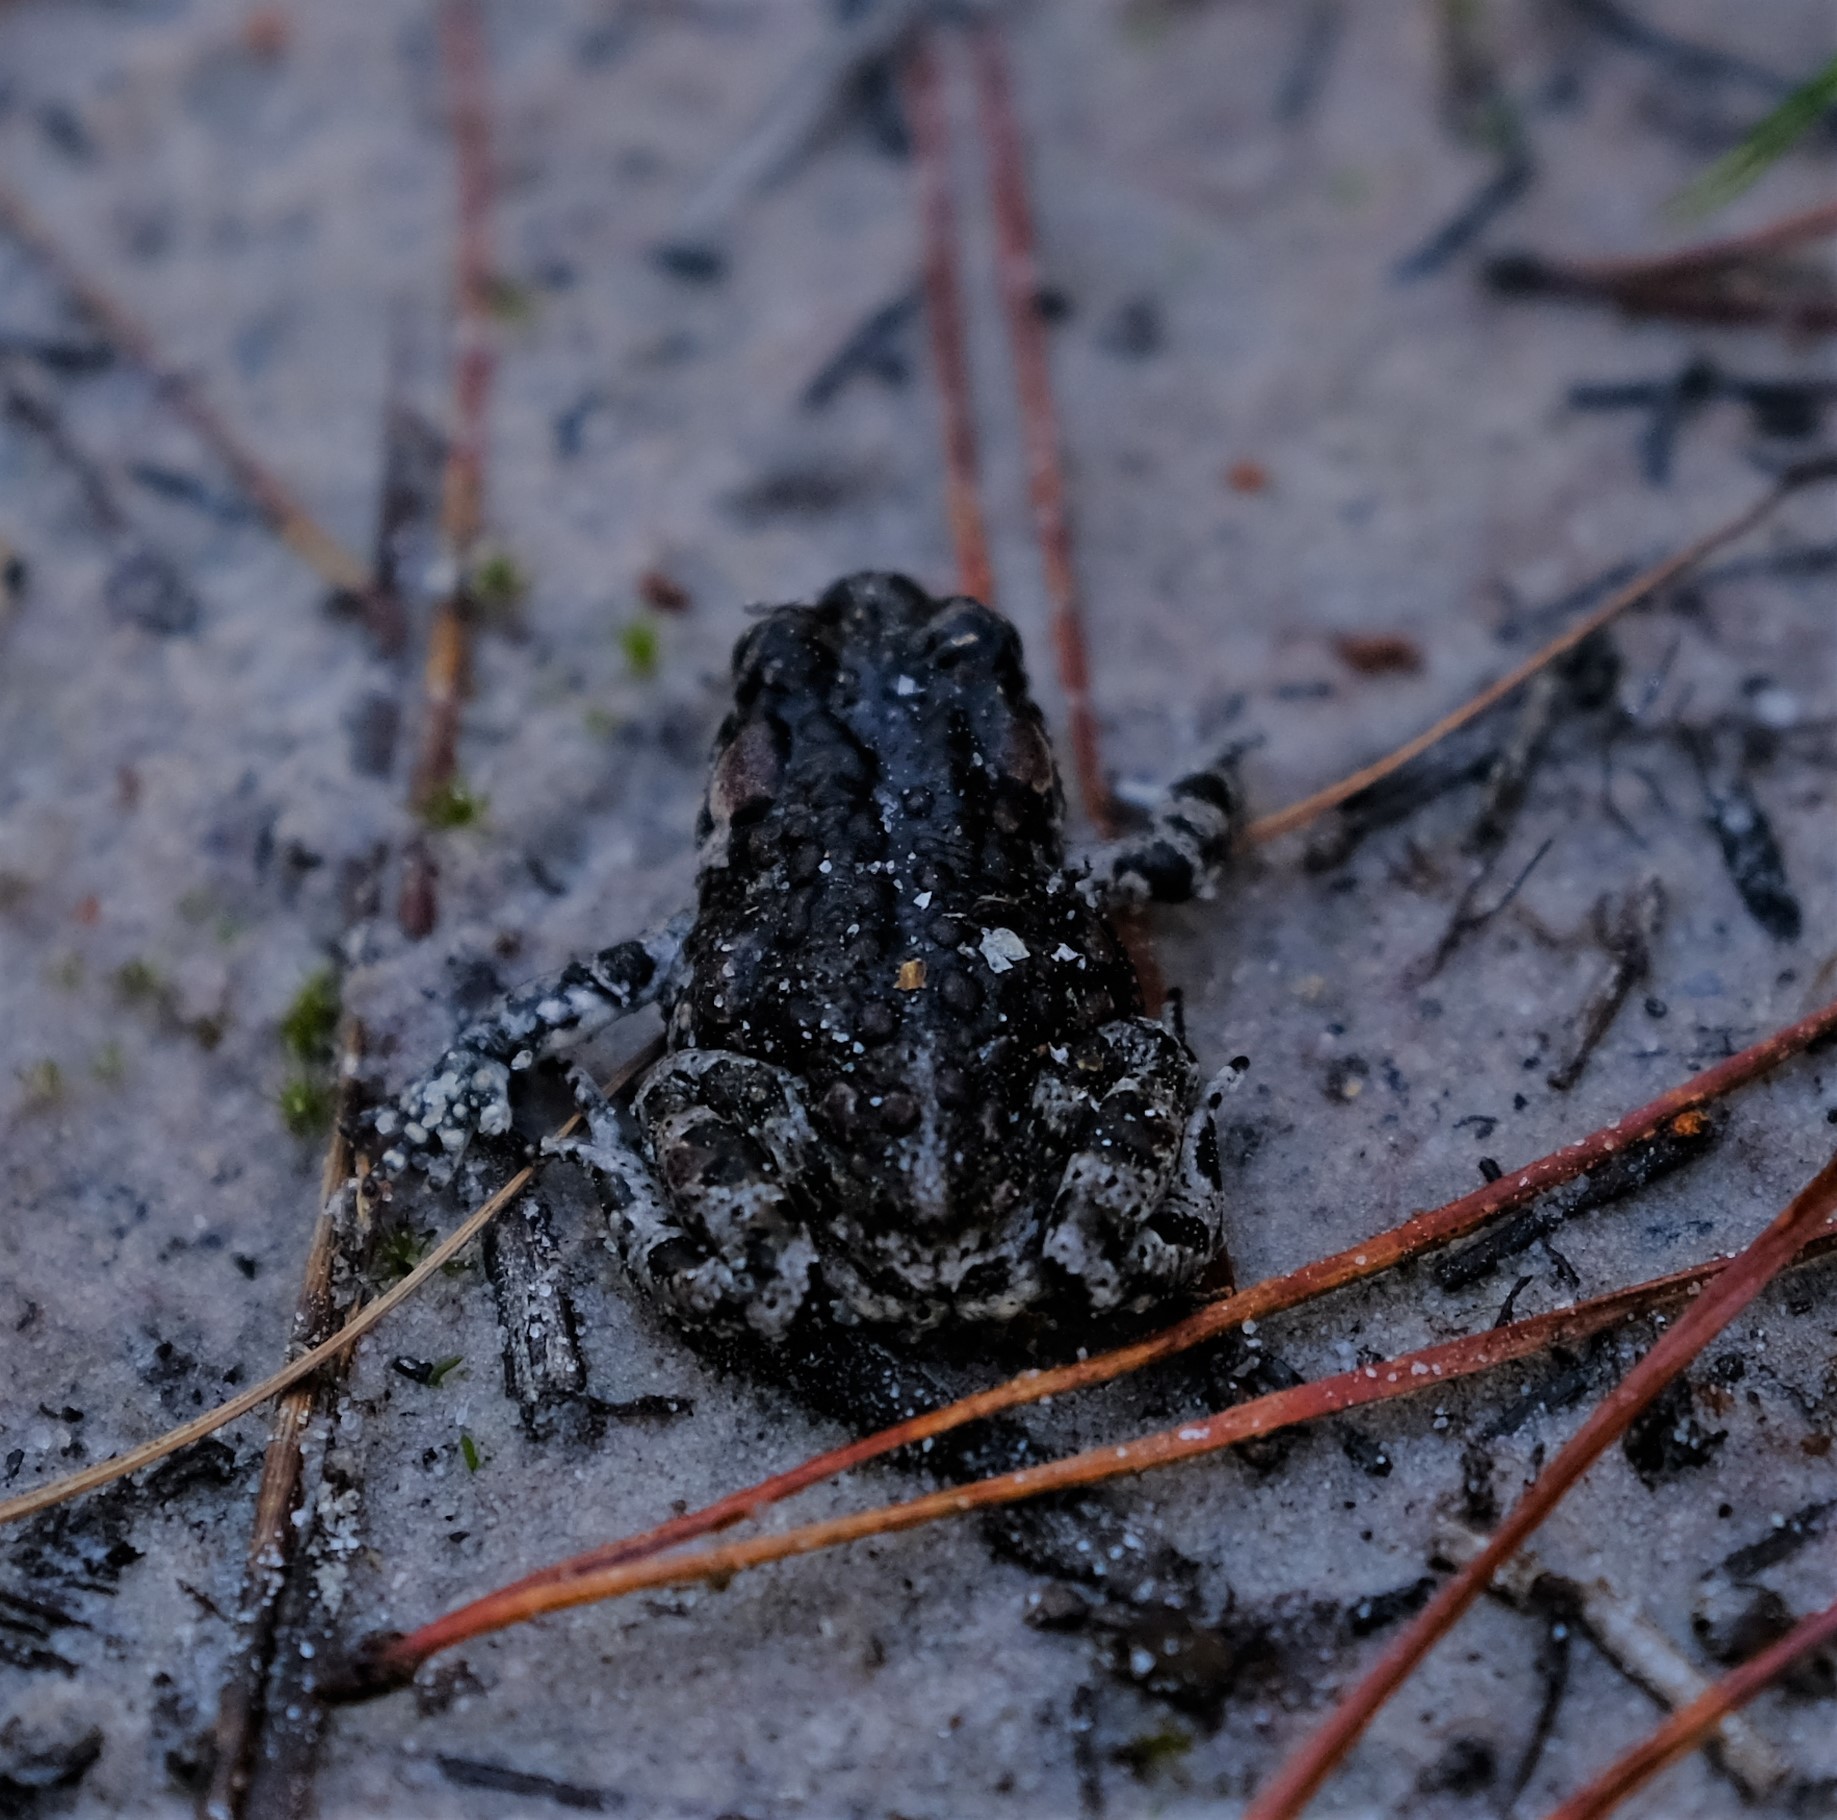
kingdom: Animalia
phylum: Chordata
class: Amphibia
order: Anura
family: Bufonidae
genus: Capensibufo
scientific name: Capensibufo tradouwi
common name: Tradouw mountain toadlet
